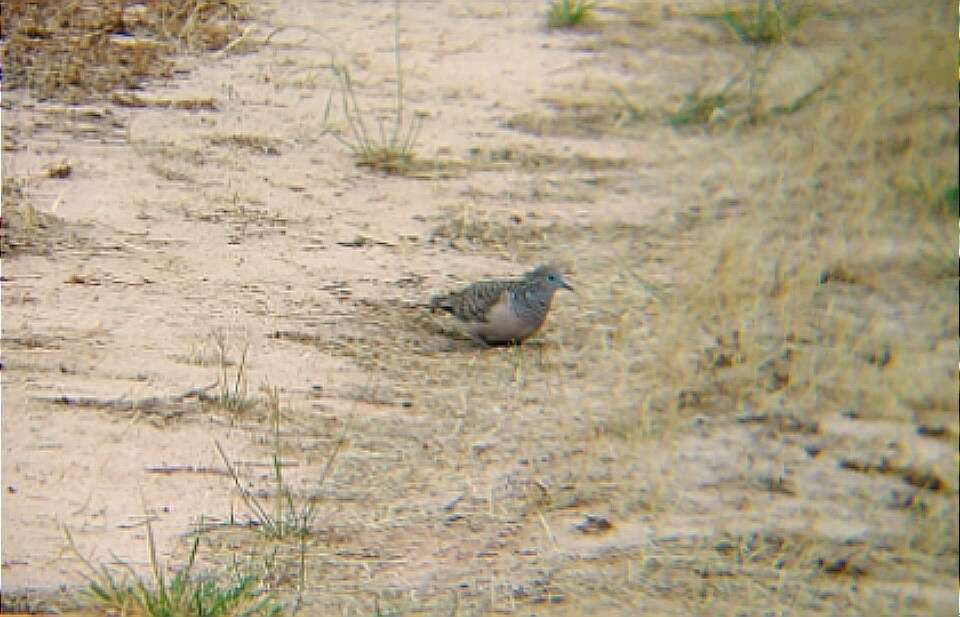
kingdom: Animalia
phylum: Chordata
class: Aves
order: Columbiformes
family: Columbidae
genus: Geopelia
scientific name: Geopelia placida
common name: Peaceful dove
